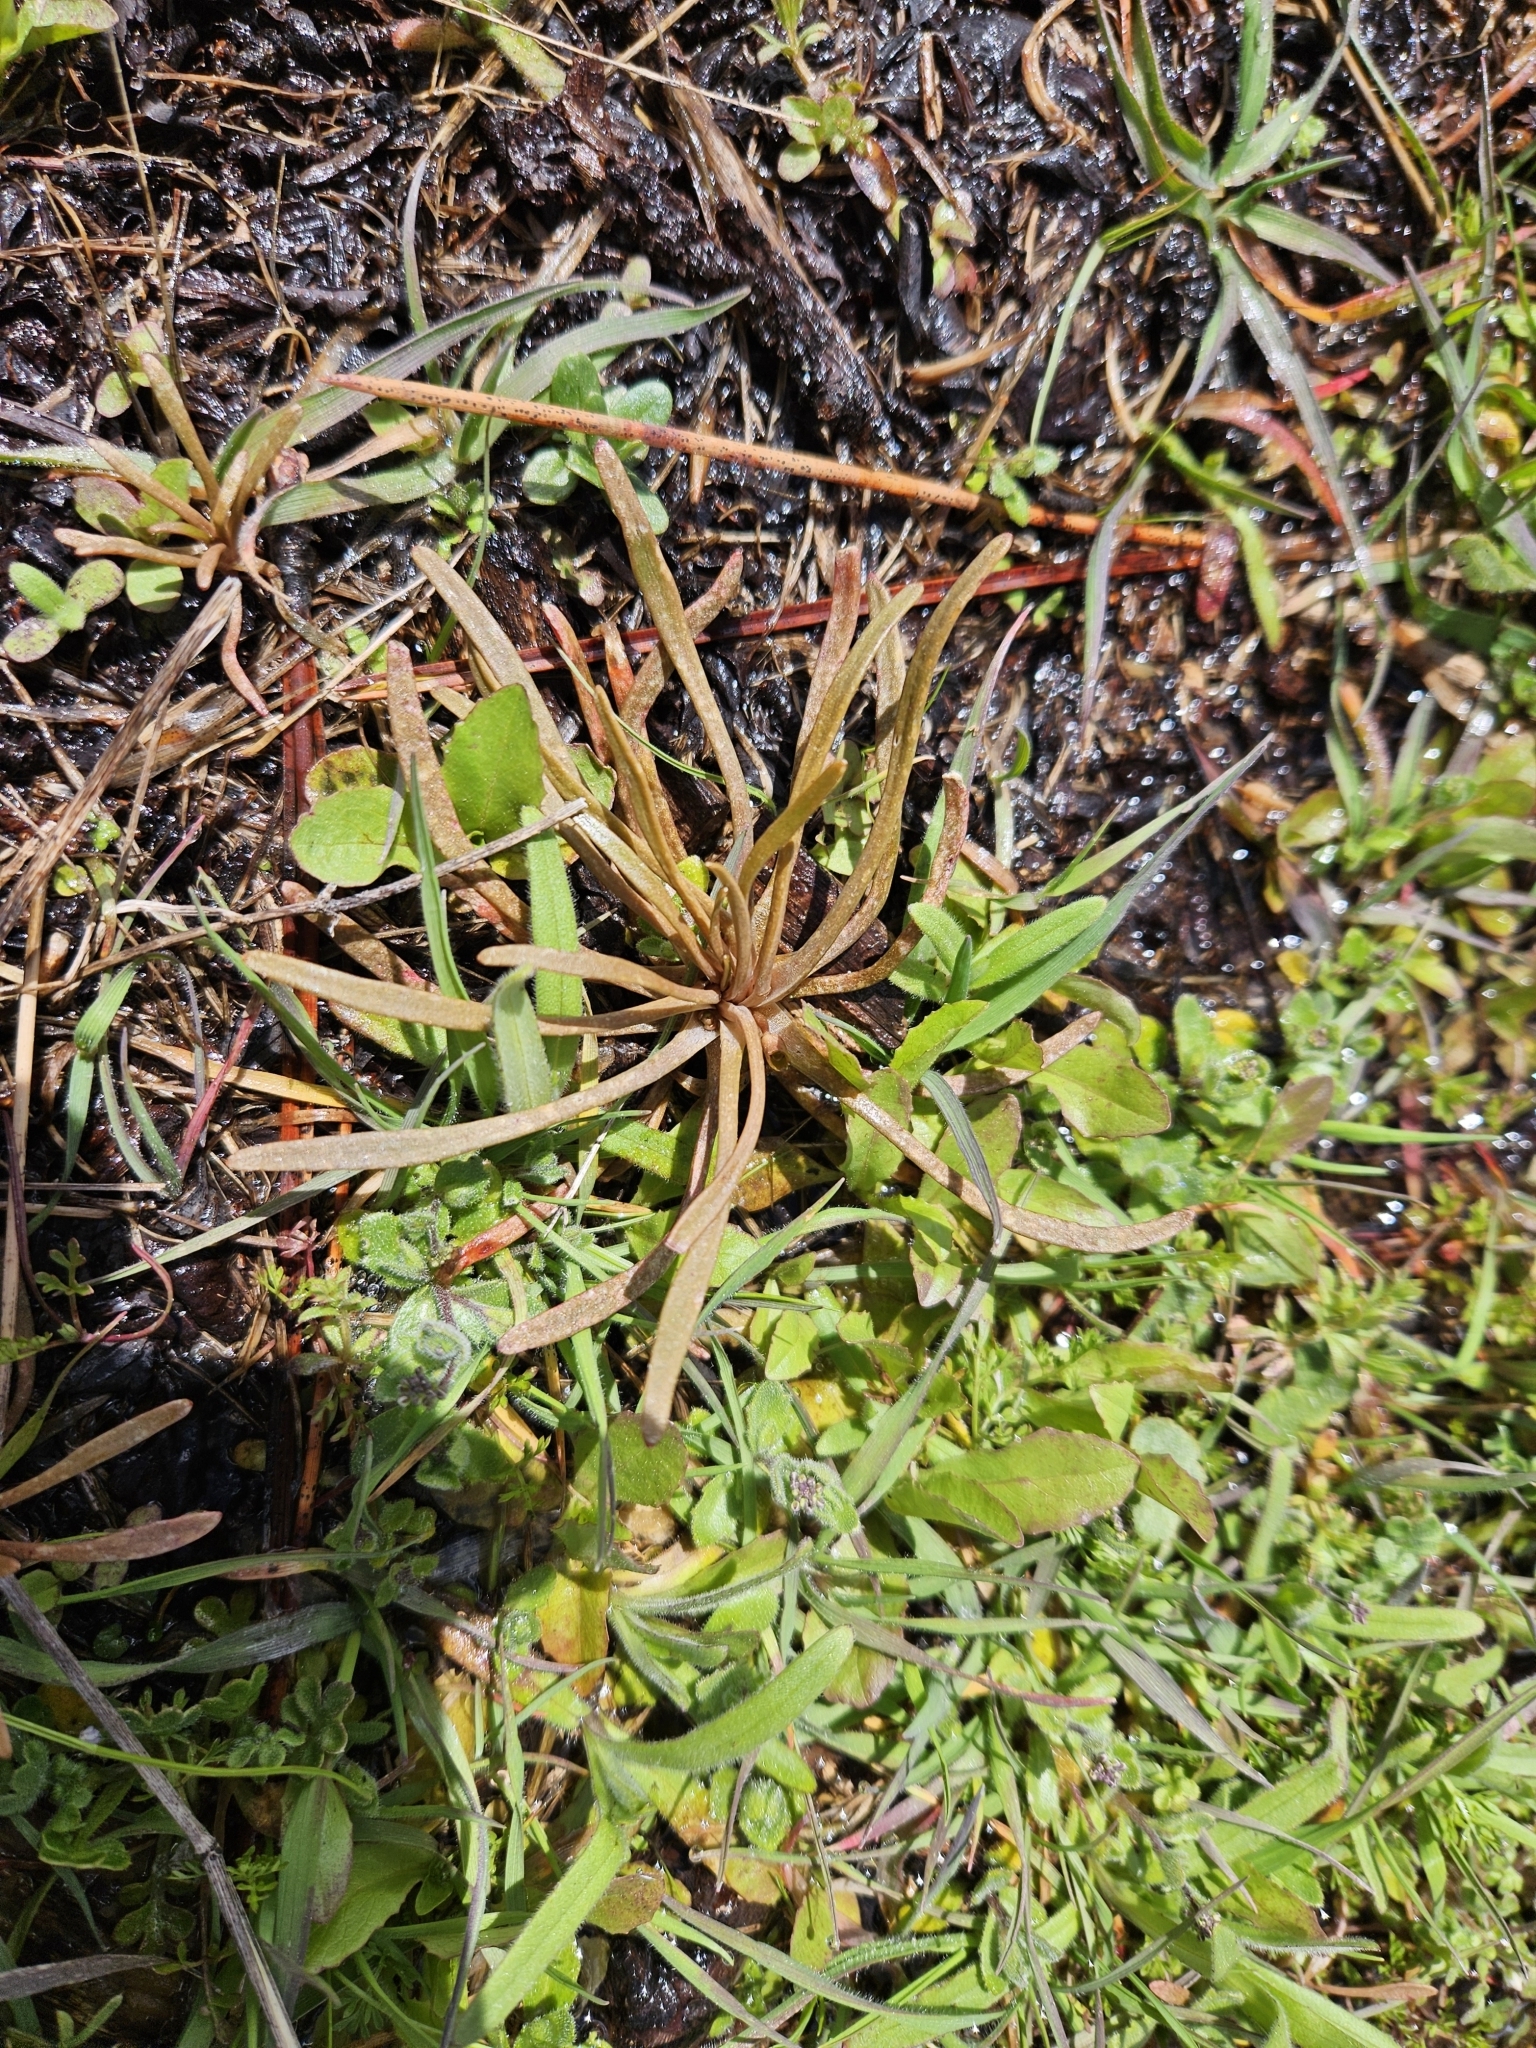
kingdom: Plantae
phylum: Tracheophyta
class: Magnoliopsida
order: Caryophyllales
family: Montiaceae
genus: Claytonia
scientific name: Claytonia parviflora
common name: Indian-lettuce
